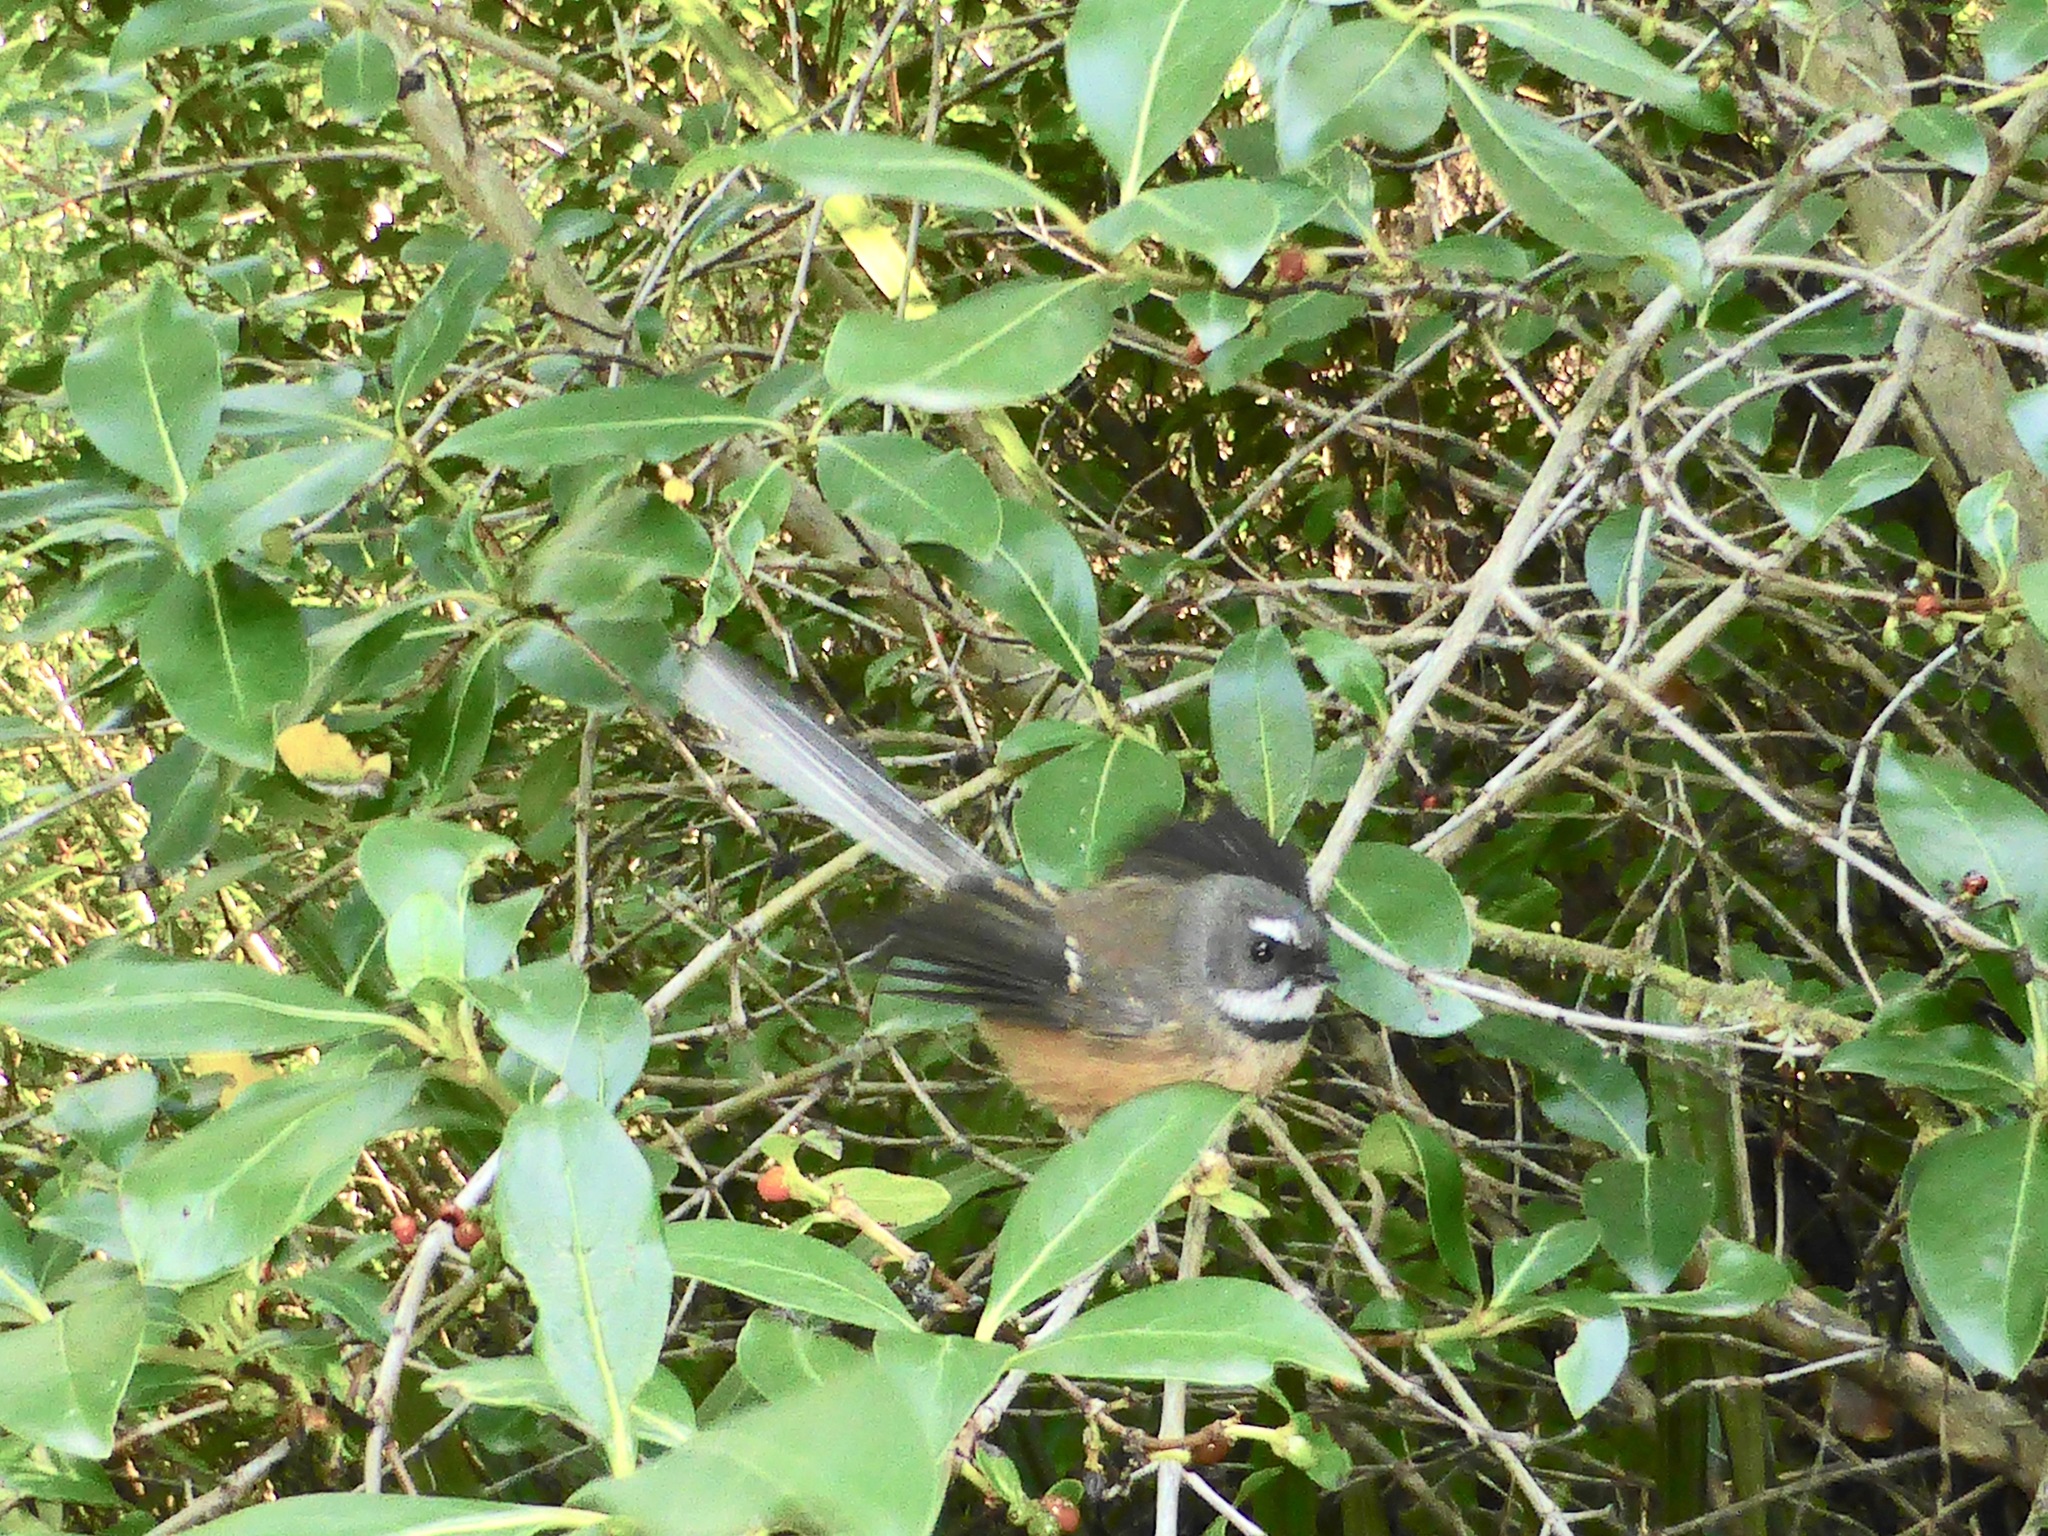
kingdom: Animalia
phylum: Chordata
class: Aves
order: Passeriformes
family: Rhipiduridae
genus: Rhipidura
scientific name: Rhipidura fuliginosa
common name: New zealand fantail
